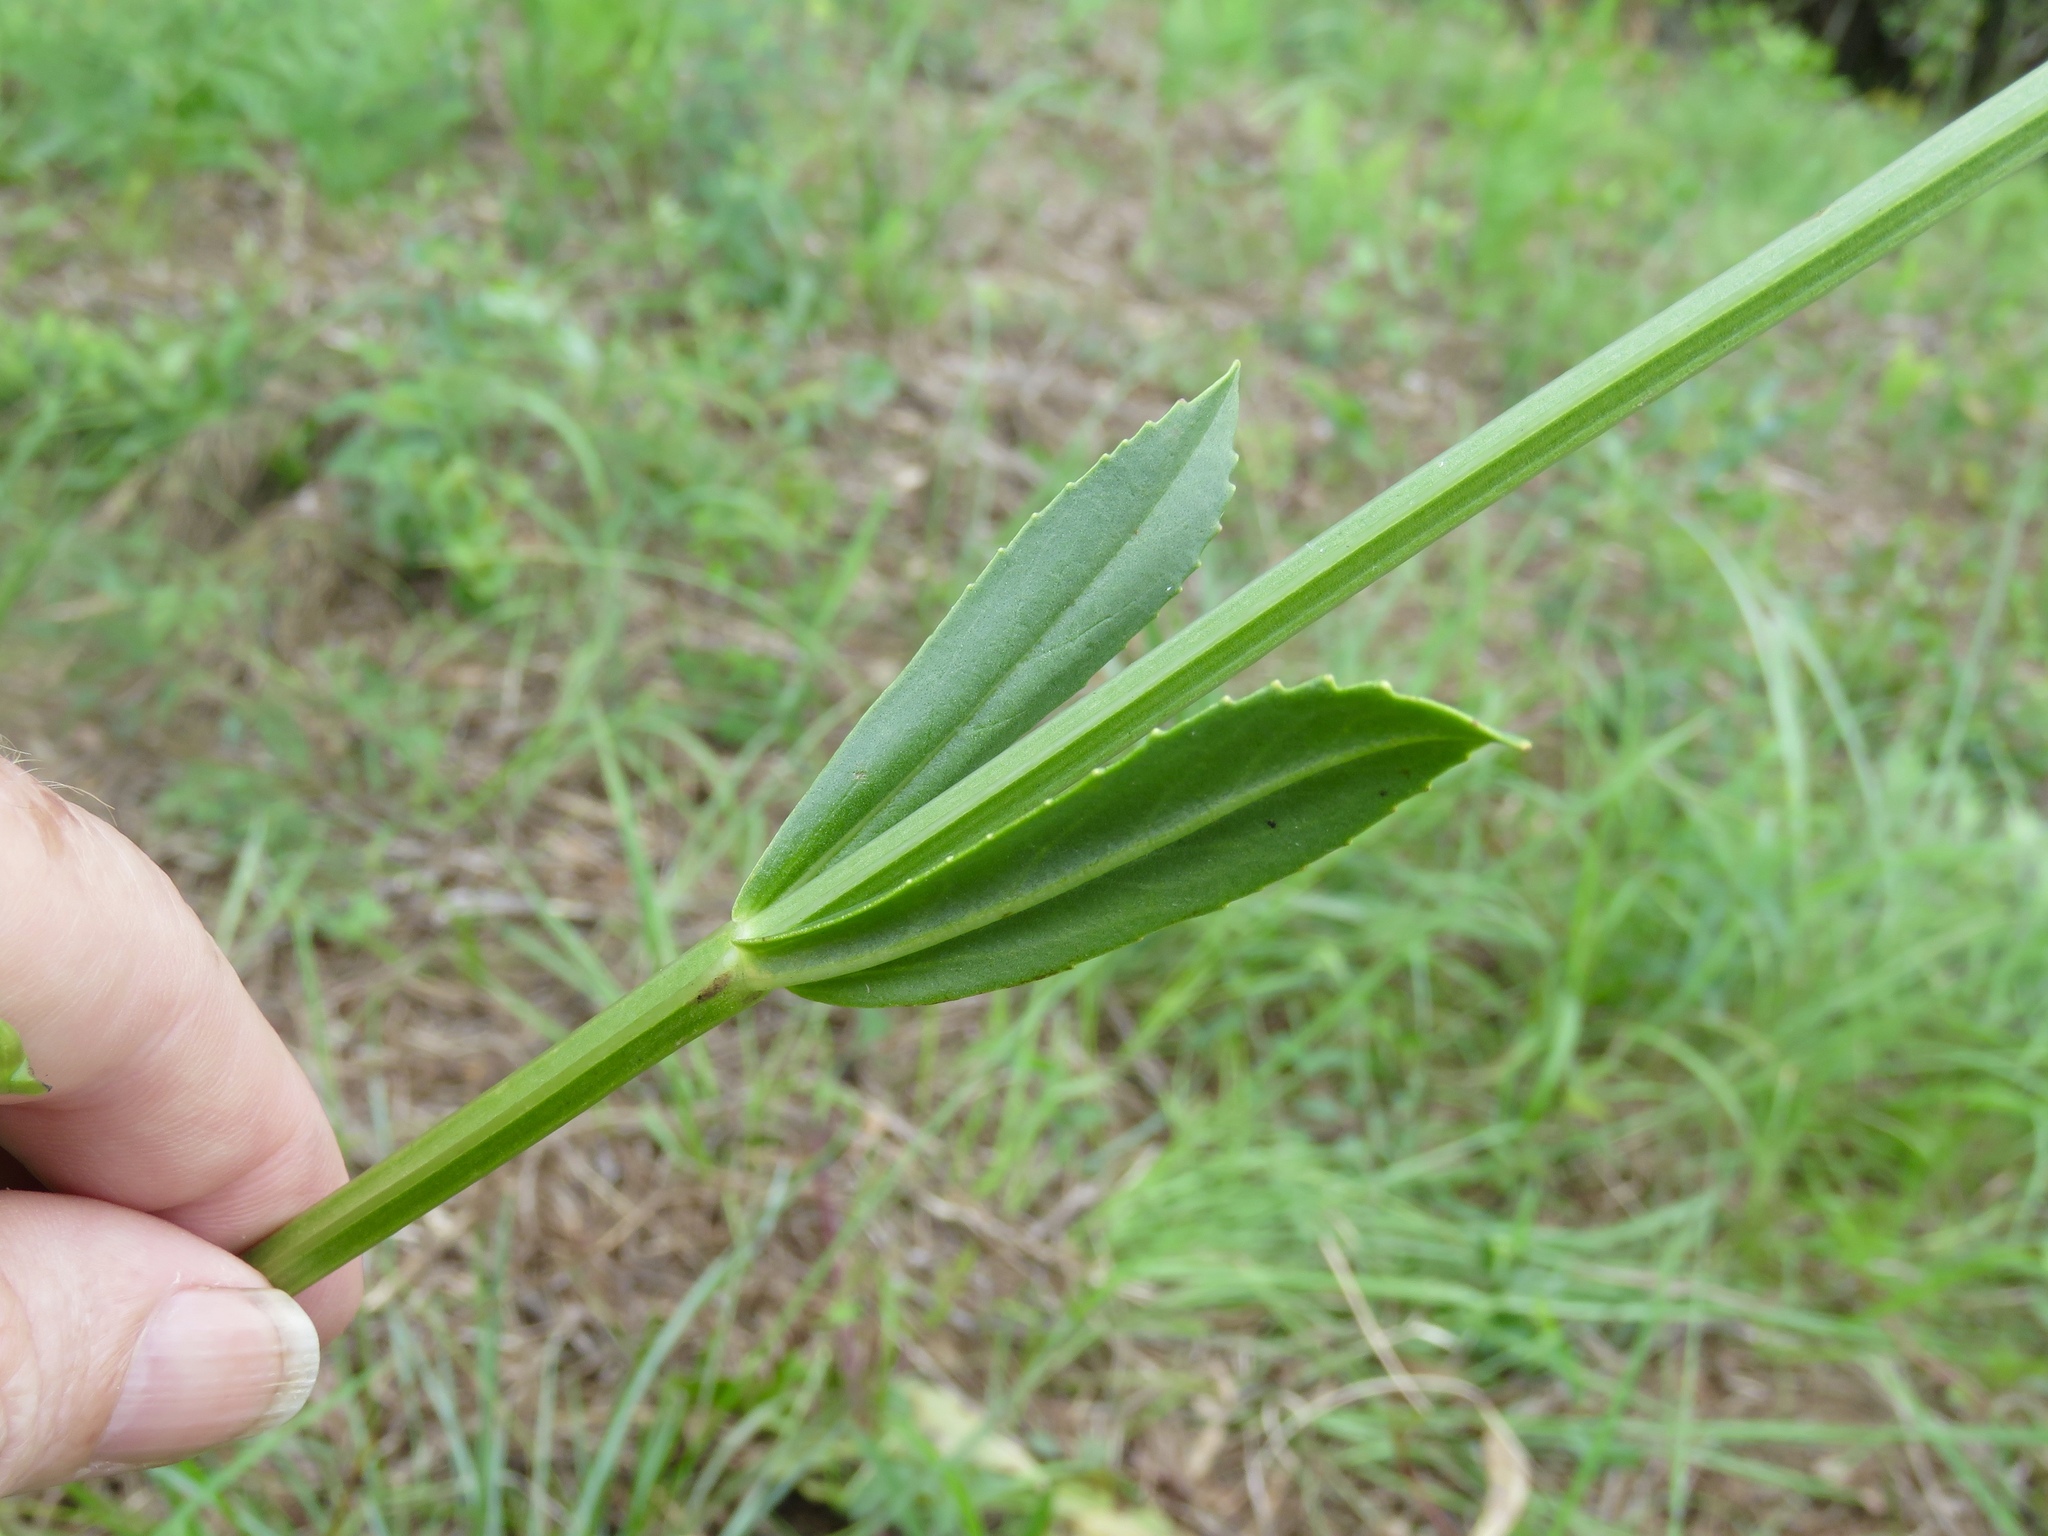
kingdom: Plantae
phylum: Tracheophyta
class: Magnoliopsida
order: Lamiales
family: Lamiaceae
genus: Physostegia
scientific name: Physostegia digitalis
